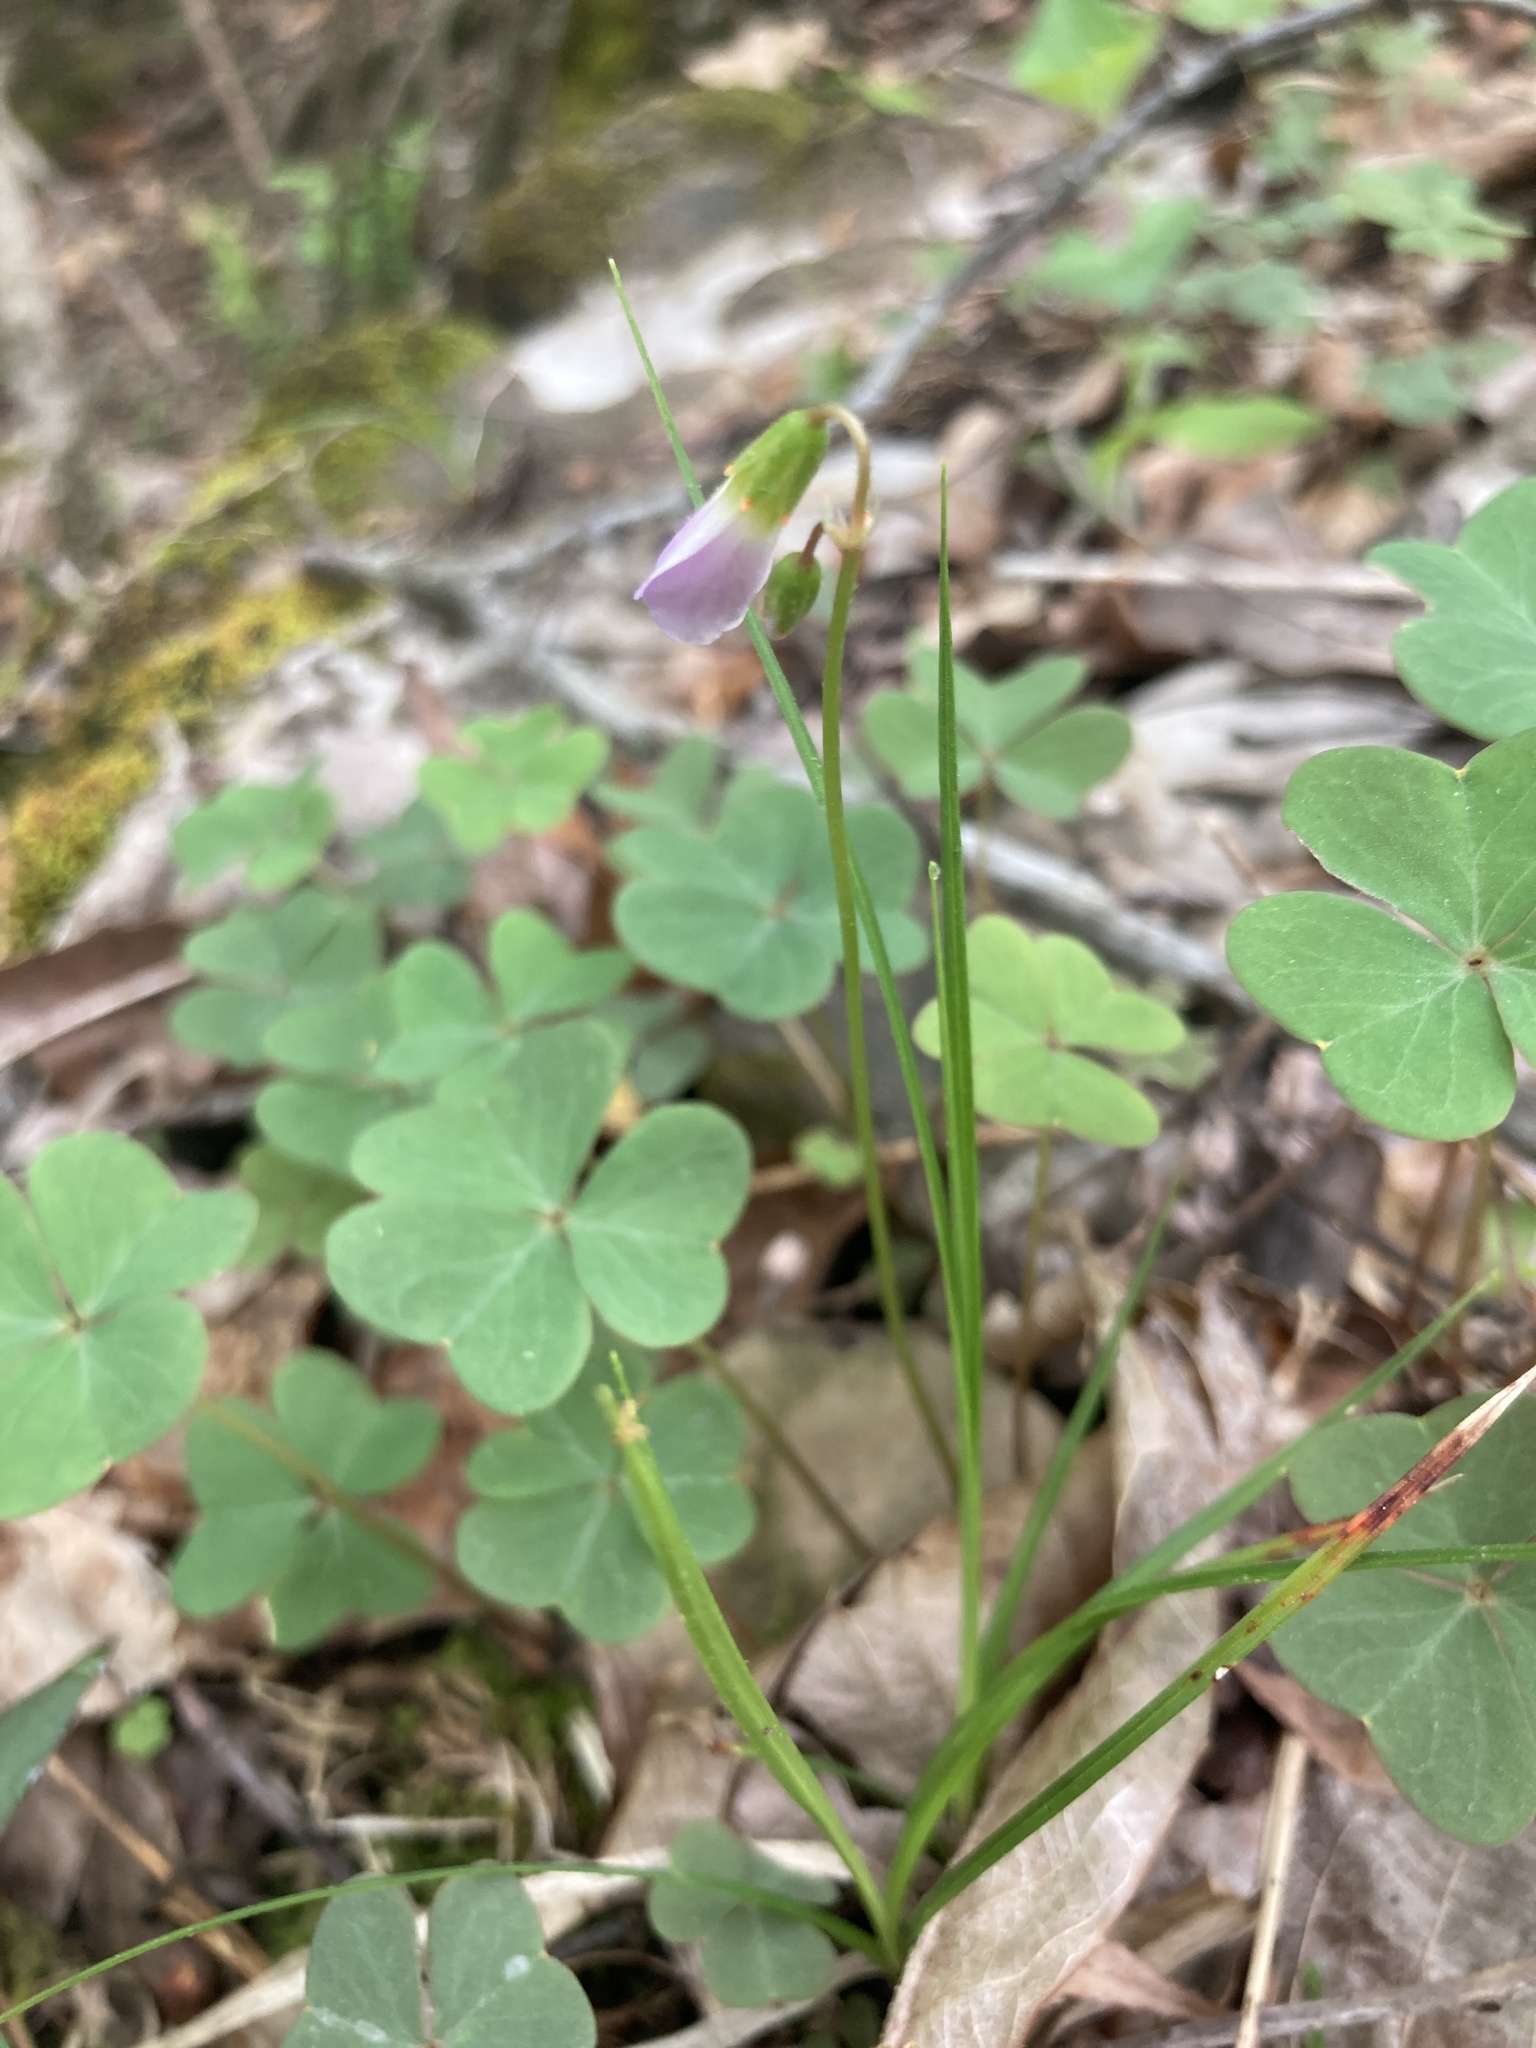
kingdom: Plantae
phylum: Tracheophyta
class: Magnoliopsida
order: Oxalidales
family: Oxalidaceae
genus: Oxalis
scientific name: Oxalis violacea
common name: Violet wood-sorrel
